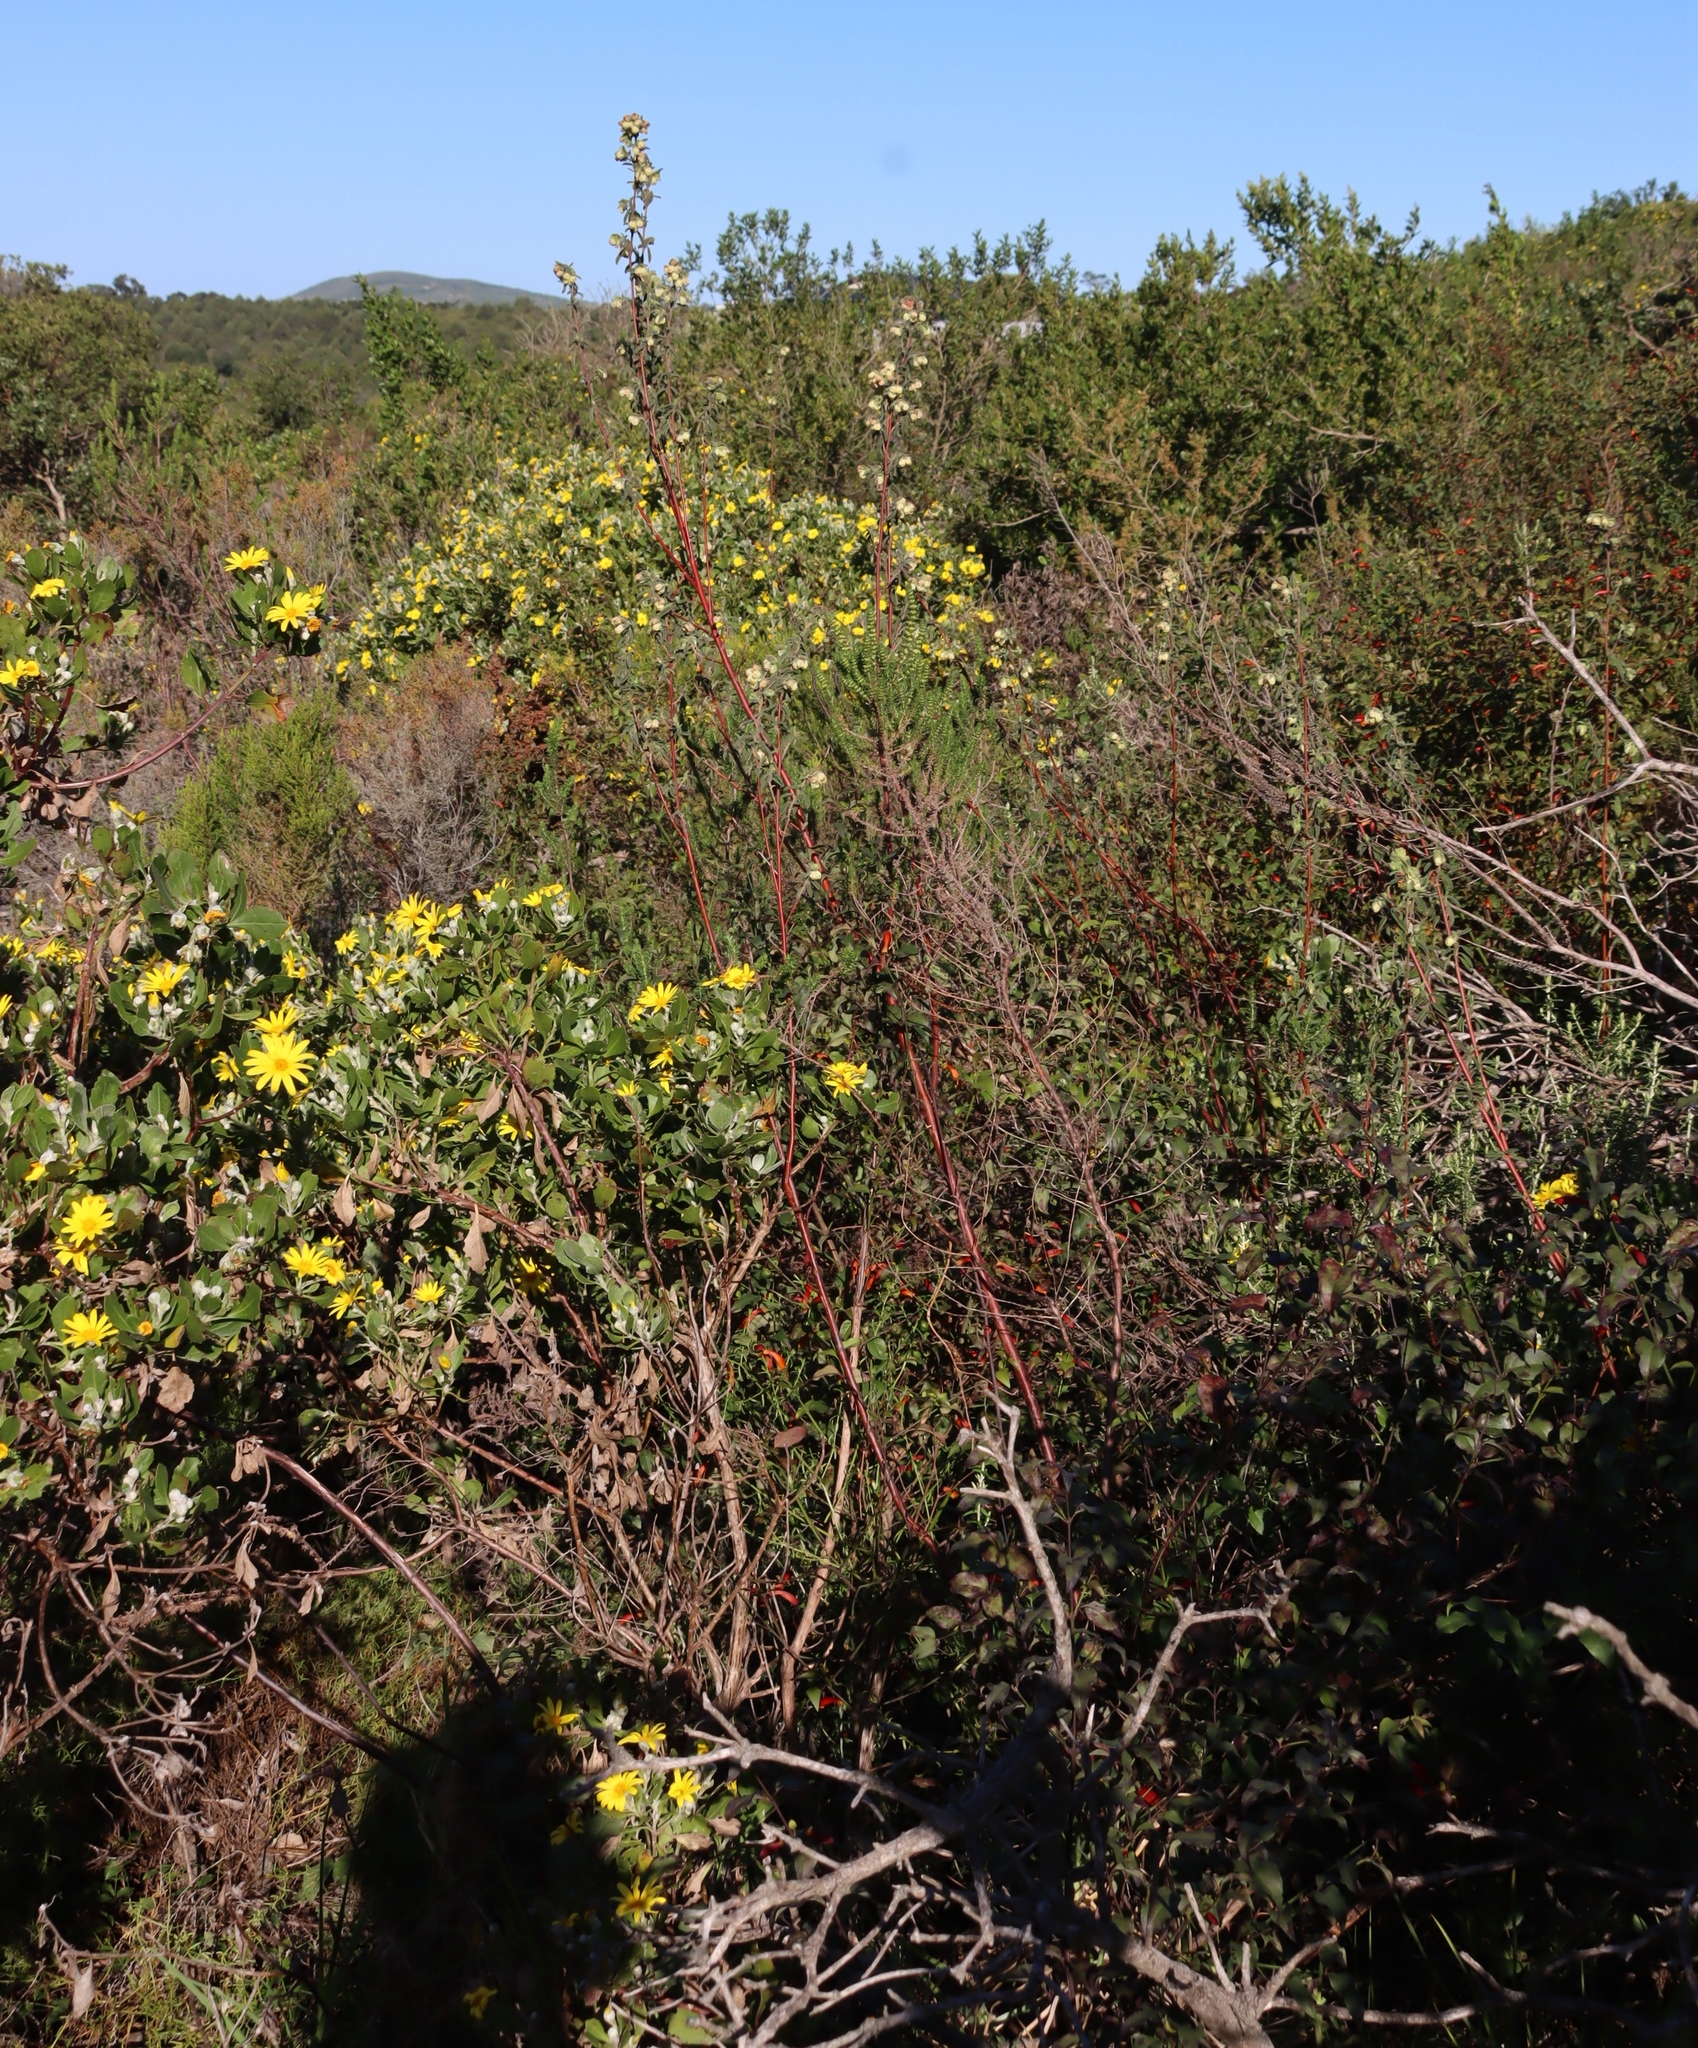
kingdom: Plantae
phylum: Tracheophyta
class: Magnoliopsida
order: Malvales
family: Malvaceae
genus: Hermannia
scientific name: Hermannia hyssopifolia
